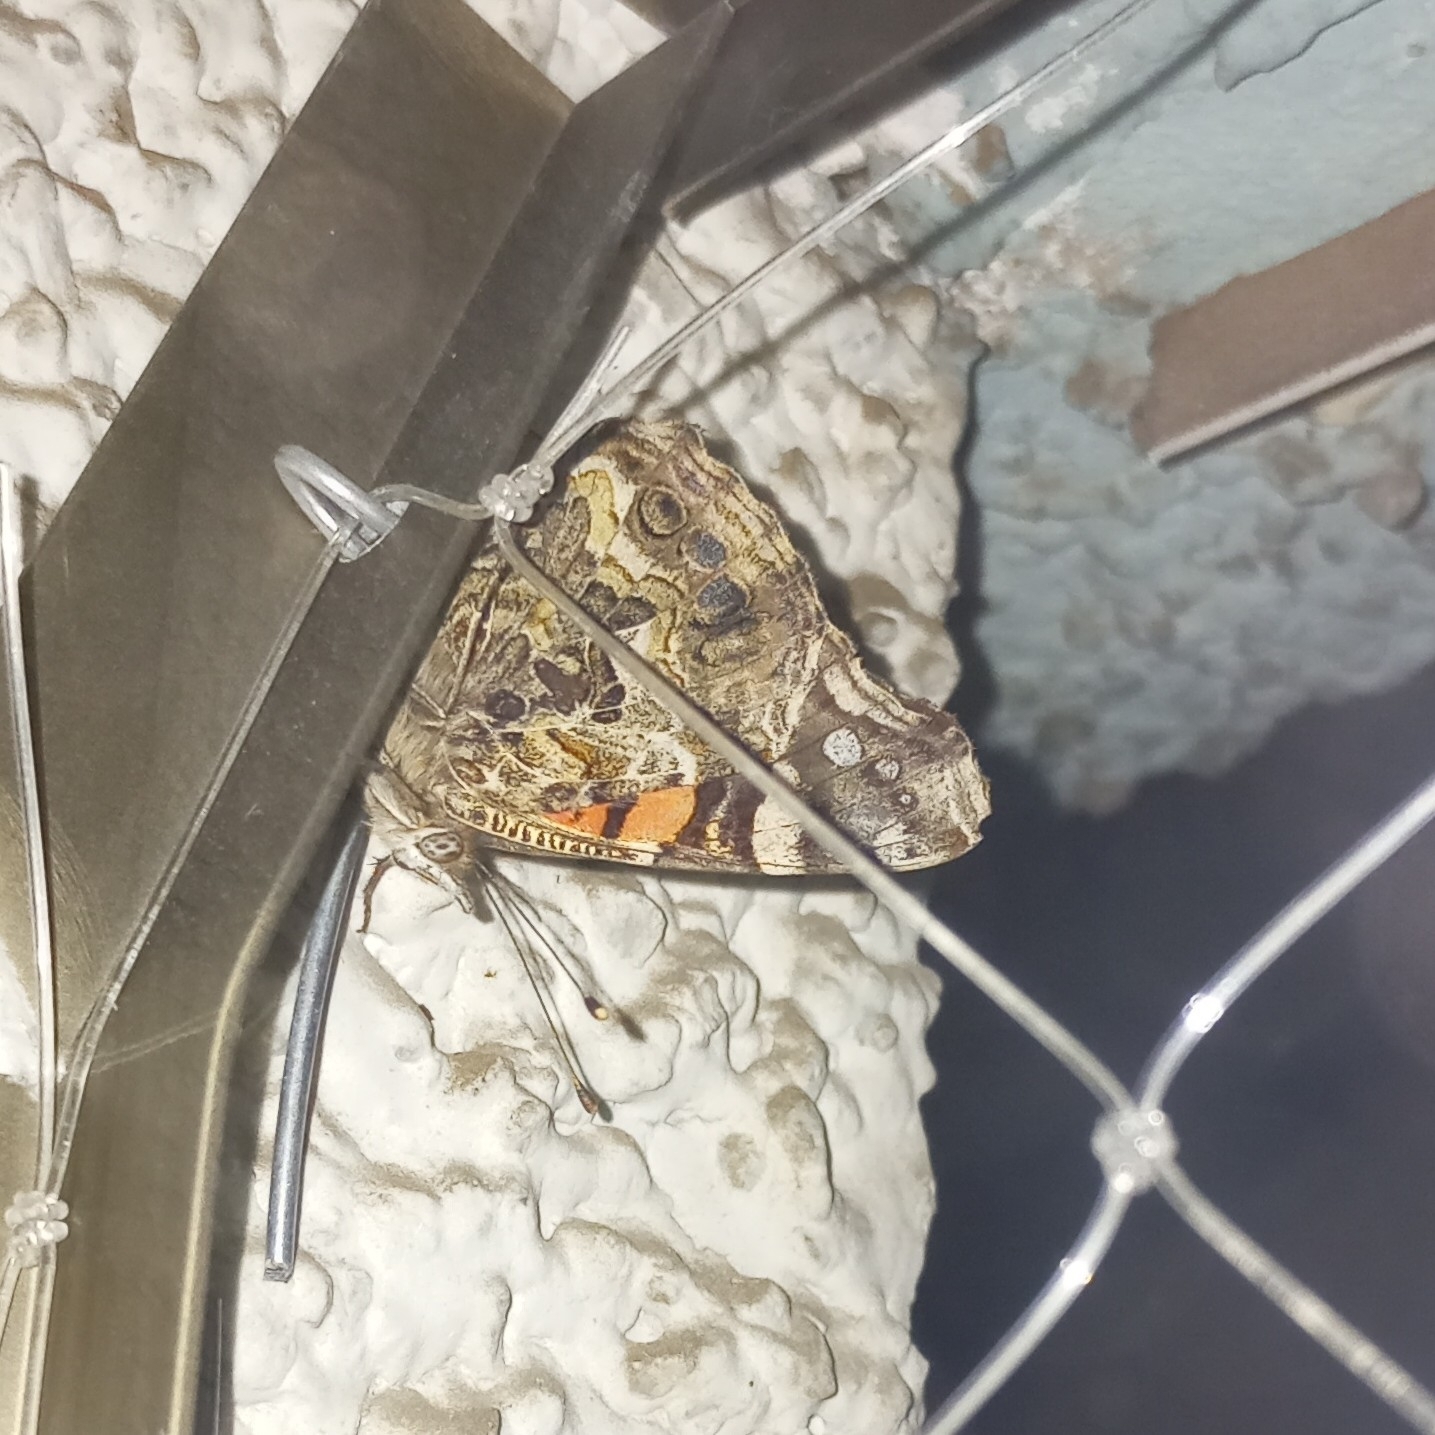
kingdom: Animalia
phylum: Arthropoda
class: Insecta
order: Lepidoptera
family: Nymphalidae
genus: Vanessa
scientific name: Vanessa carye
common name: Subtropical lady
